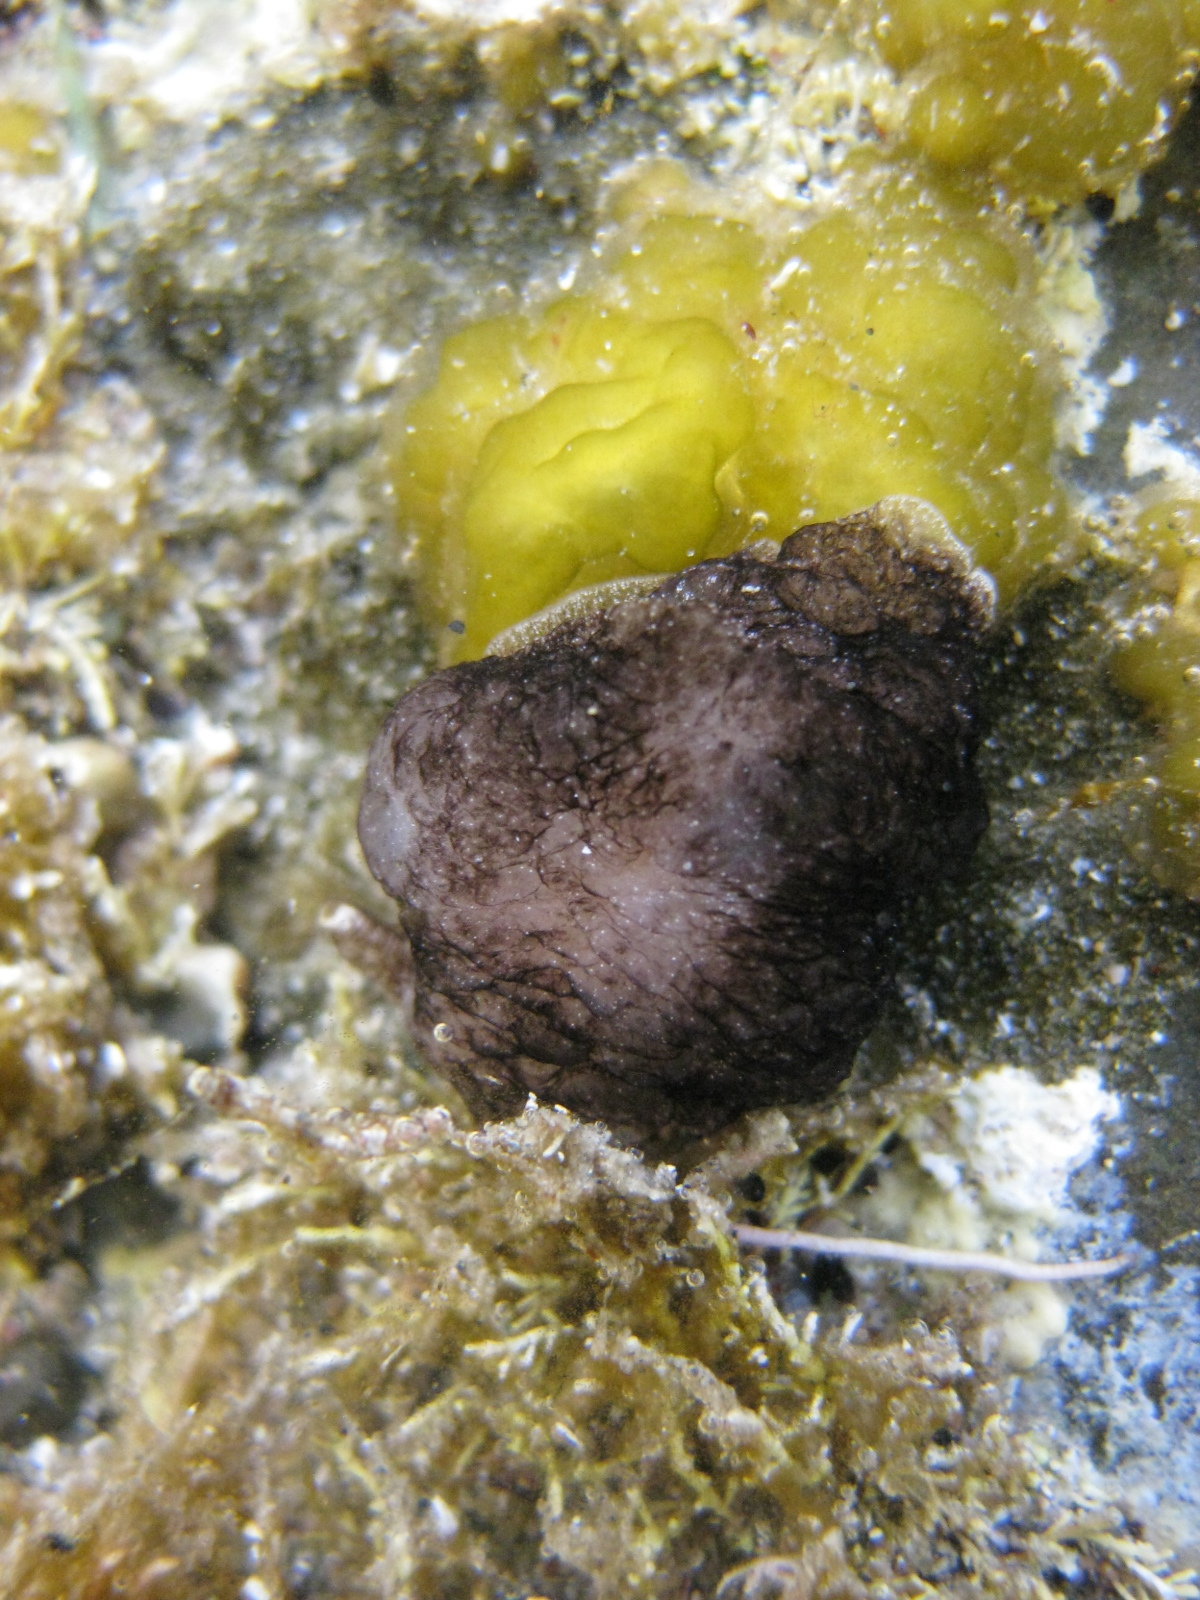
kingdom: Animalia
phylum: Mollusca
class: Gastropoda
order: Pleurobranchida
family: Pleurobranchaeidae
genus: Pleurobranchaea
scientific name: Pleurobranchaea maculata
